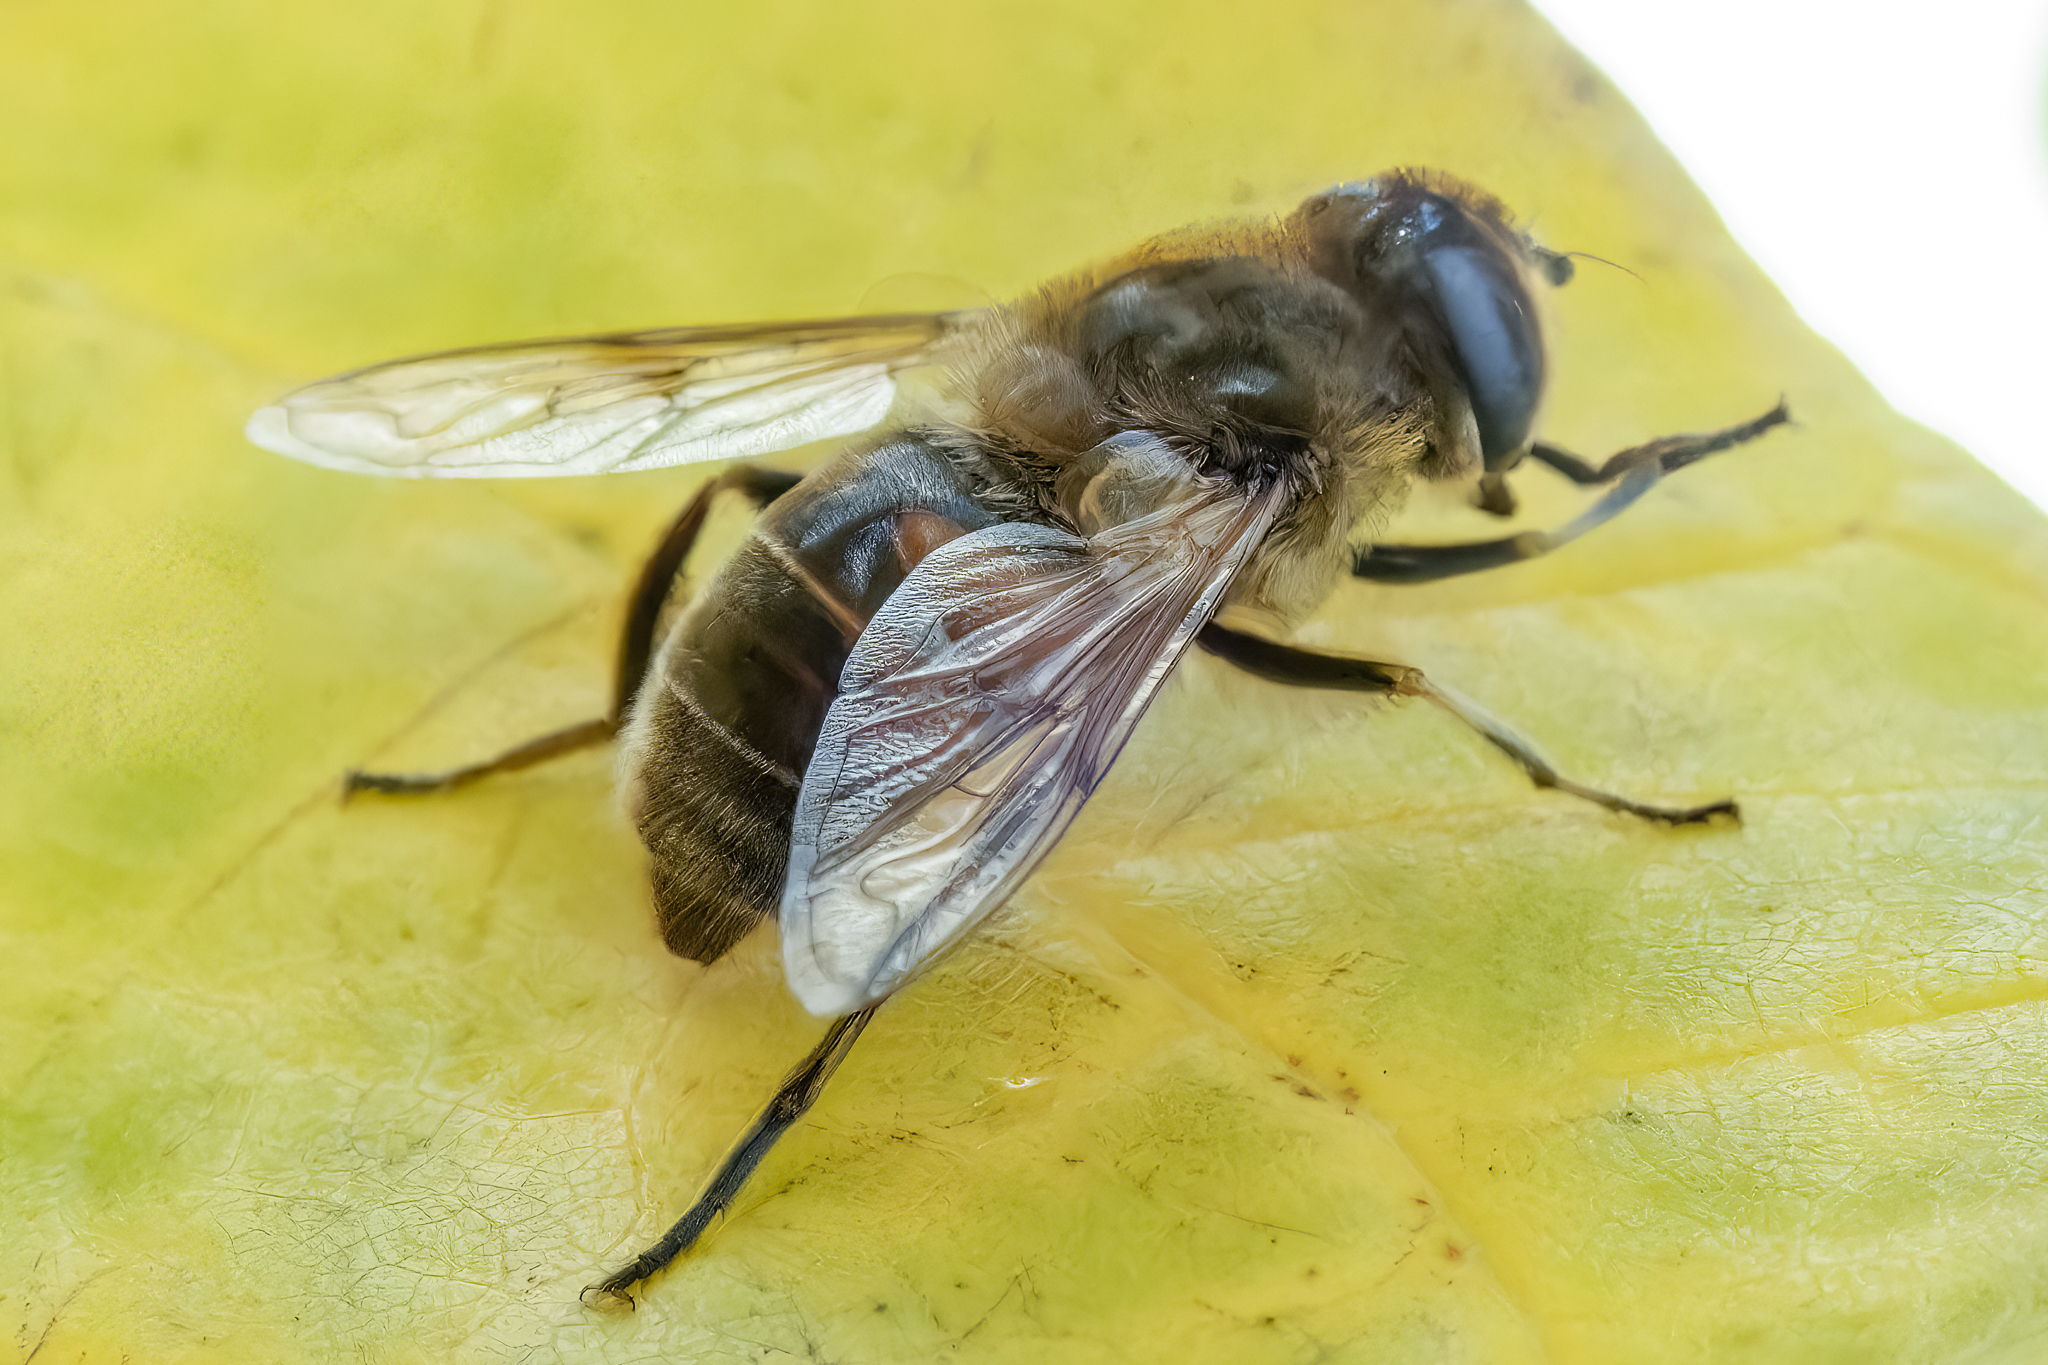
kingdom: Animalia
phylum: Arthropoda
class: Insecta
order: Diptera
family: Syrphidae
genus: Eristalis
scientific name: Eristalis tenax
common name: Drone fly
